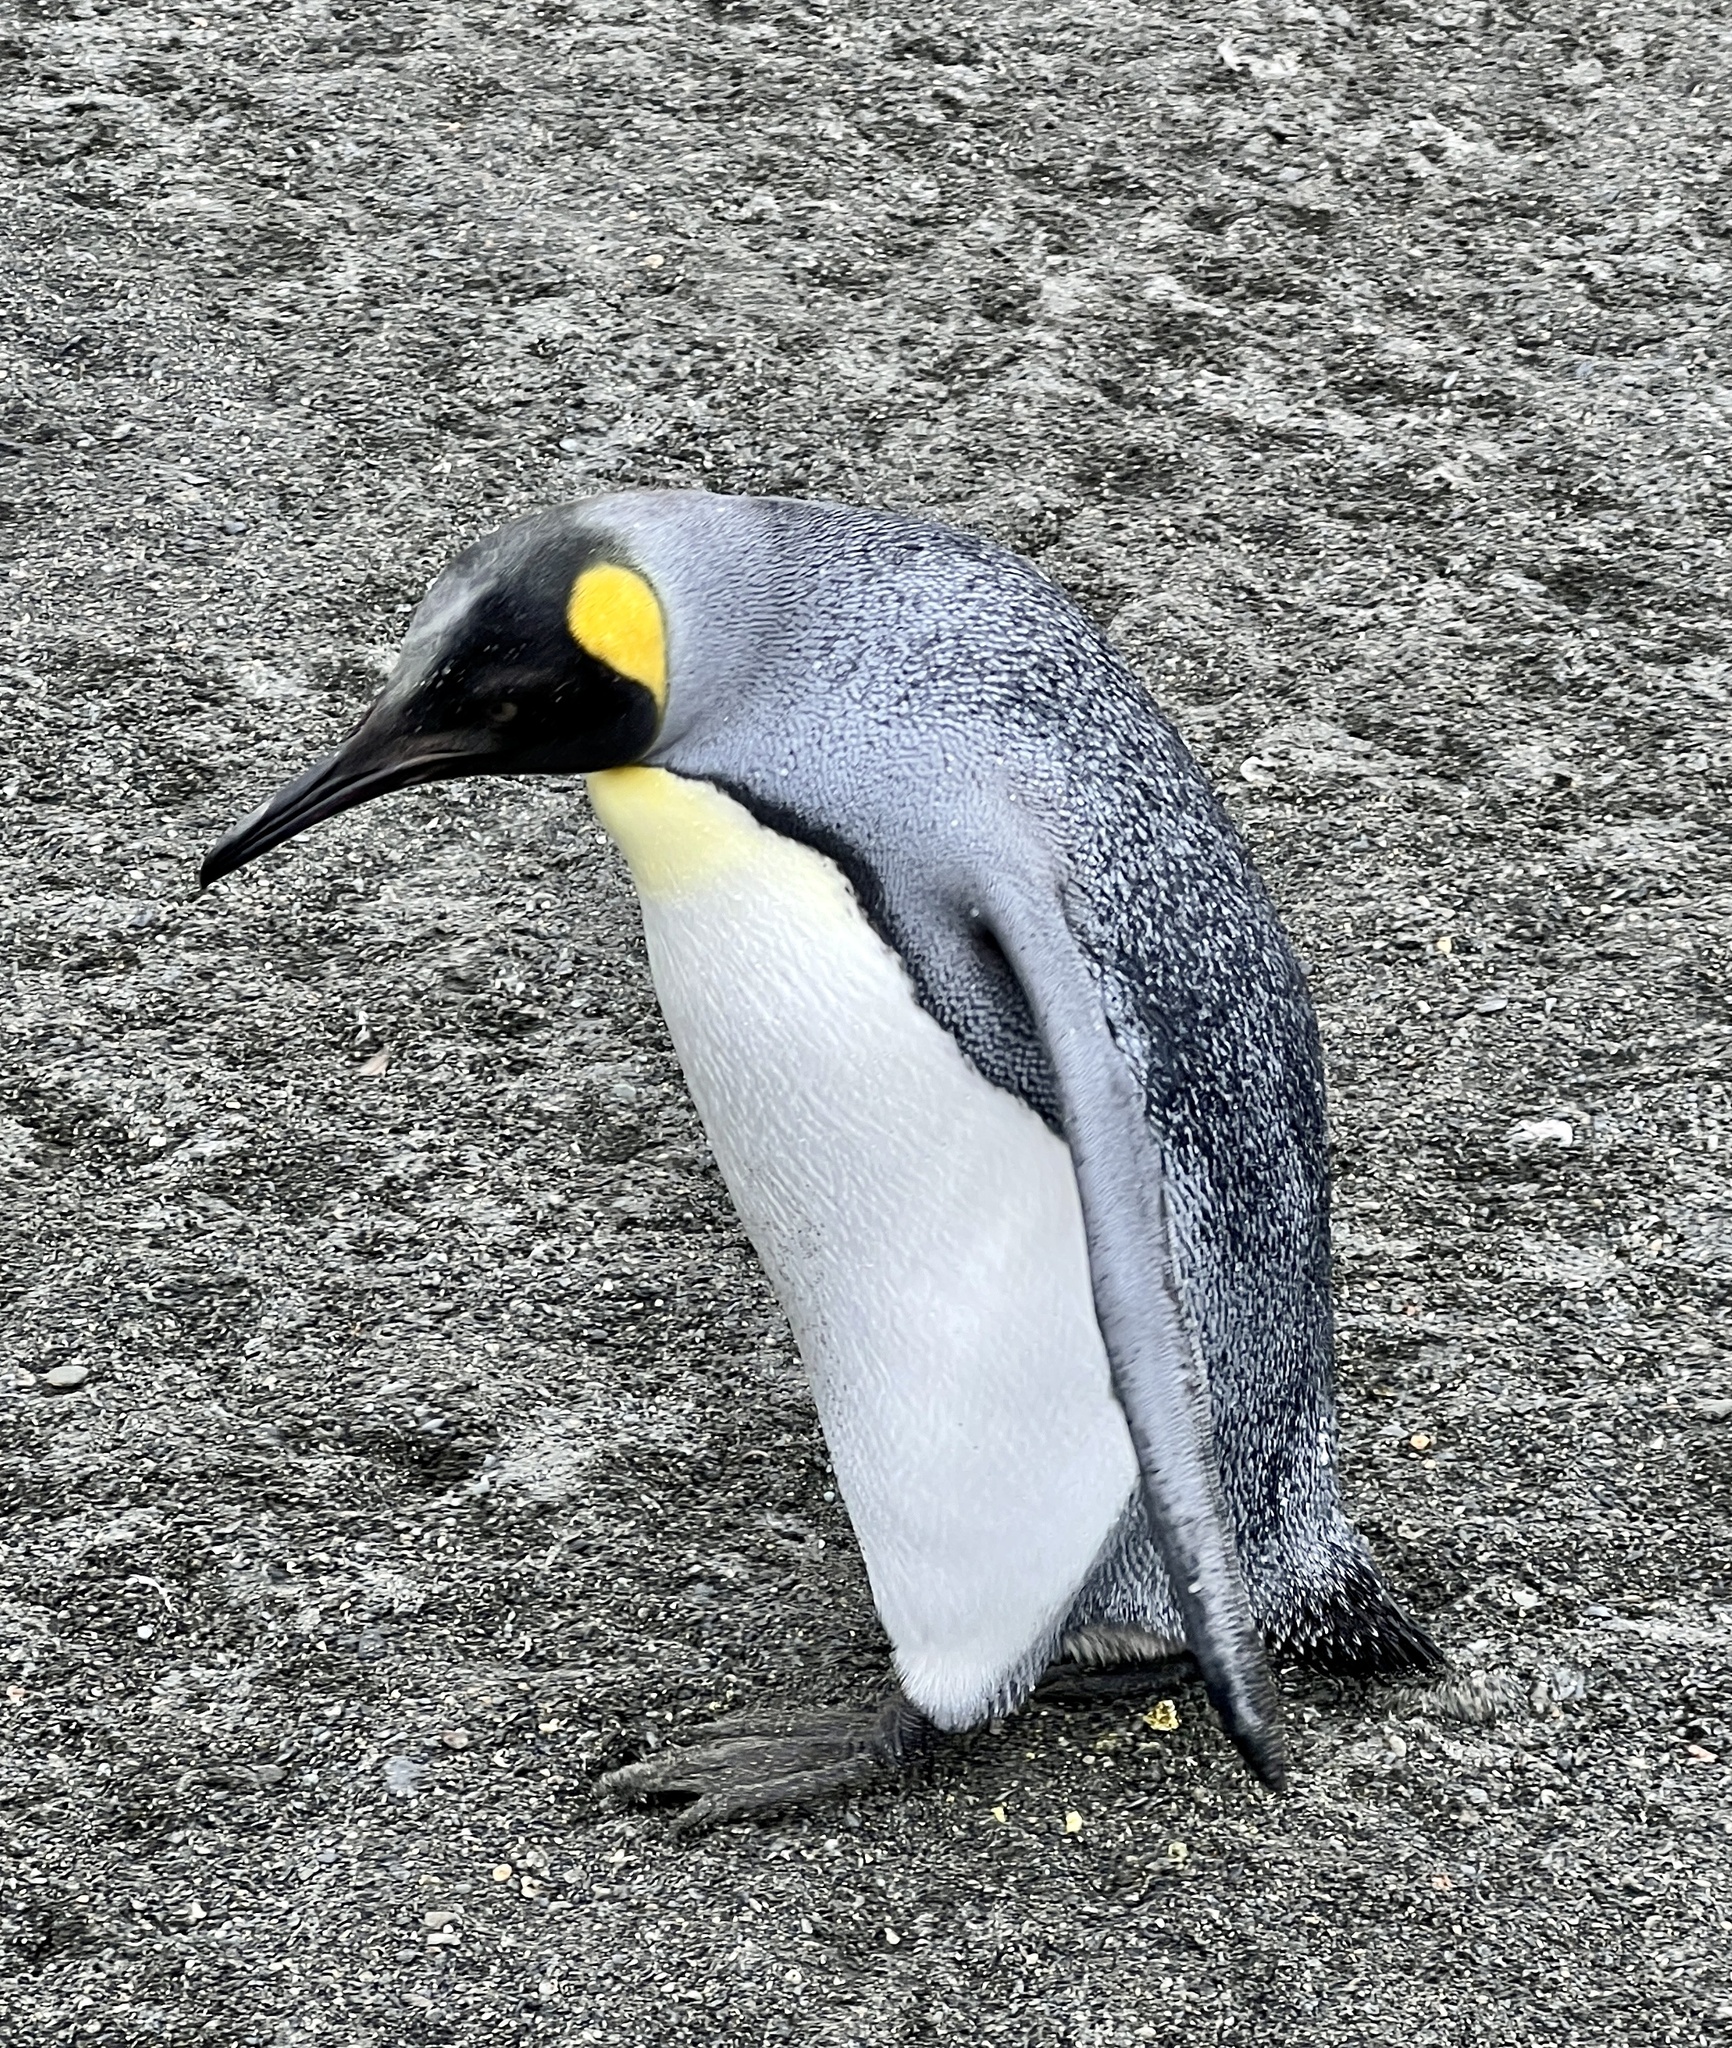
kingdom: Animalia
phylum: Chordata
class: Aves
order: Sphenisciformes
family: Spheniscidae
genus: Aptenodytes
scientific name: Aptenodytes patagonicus
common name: King penguin
